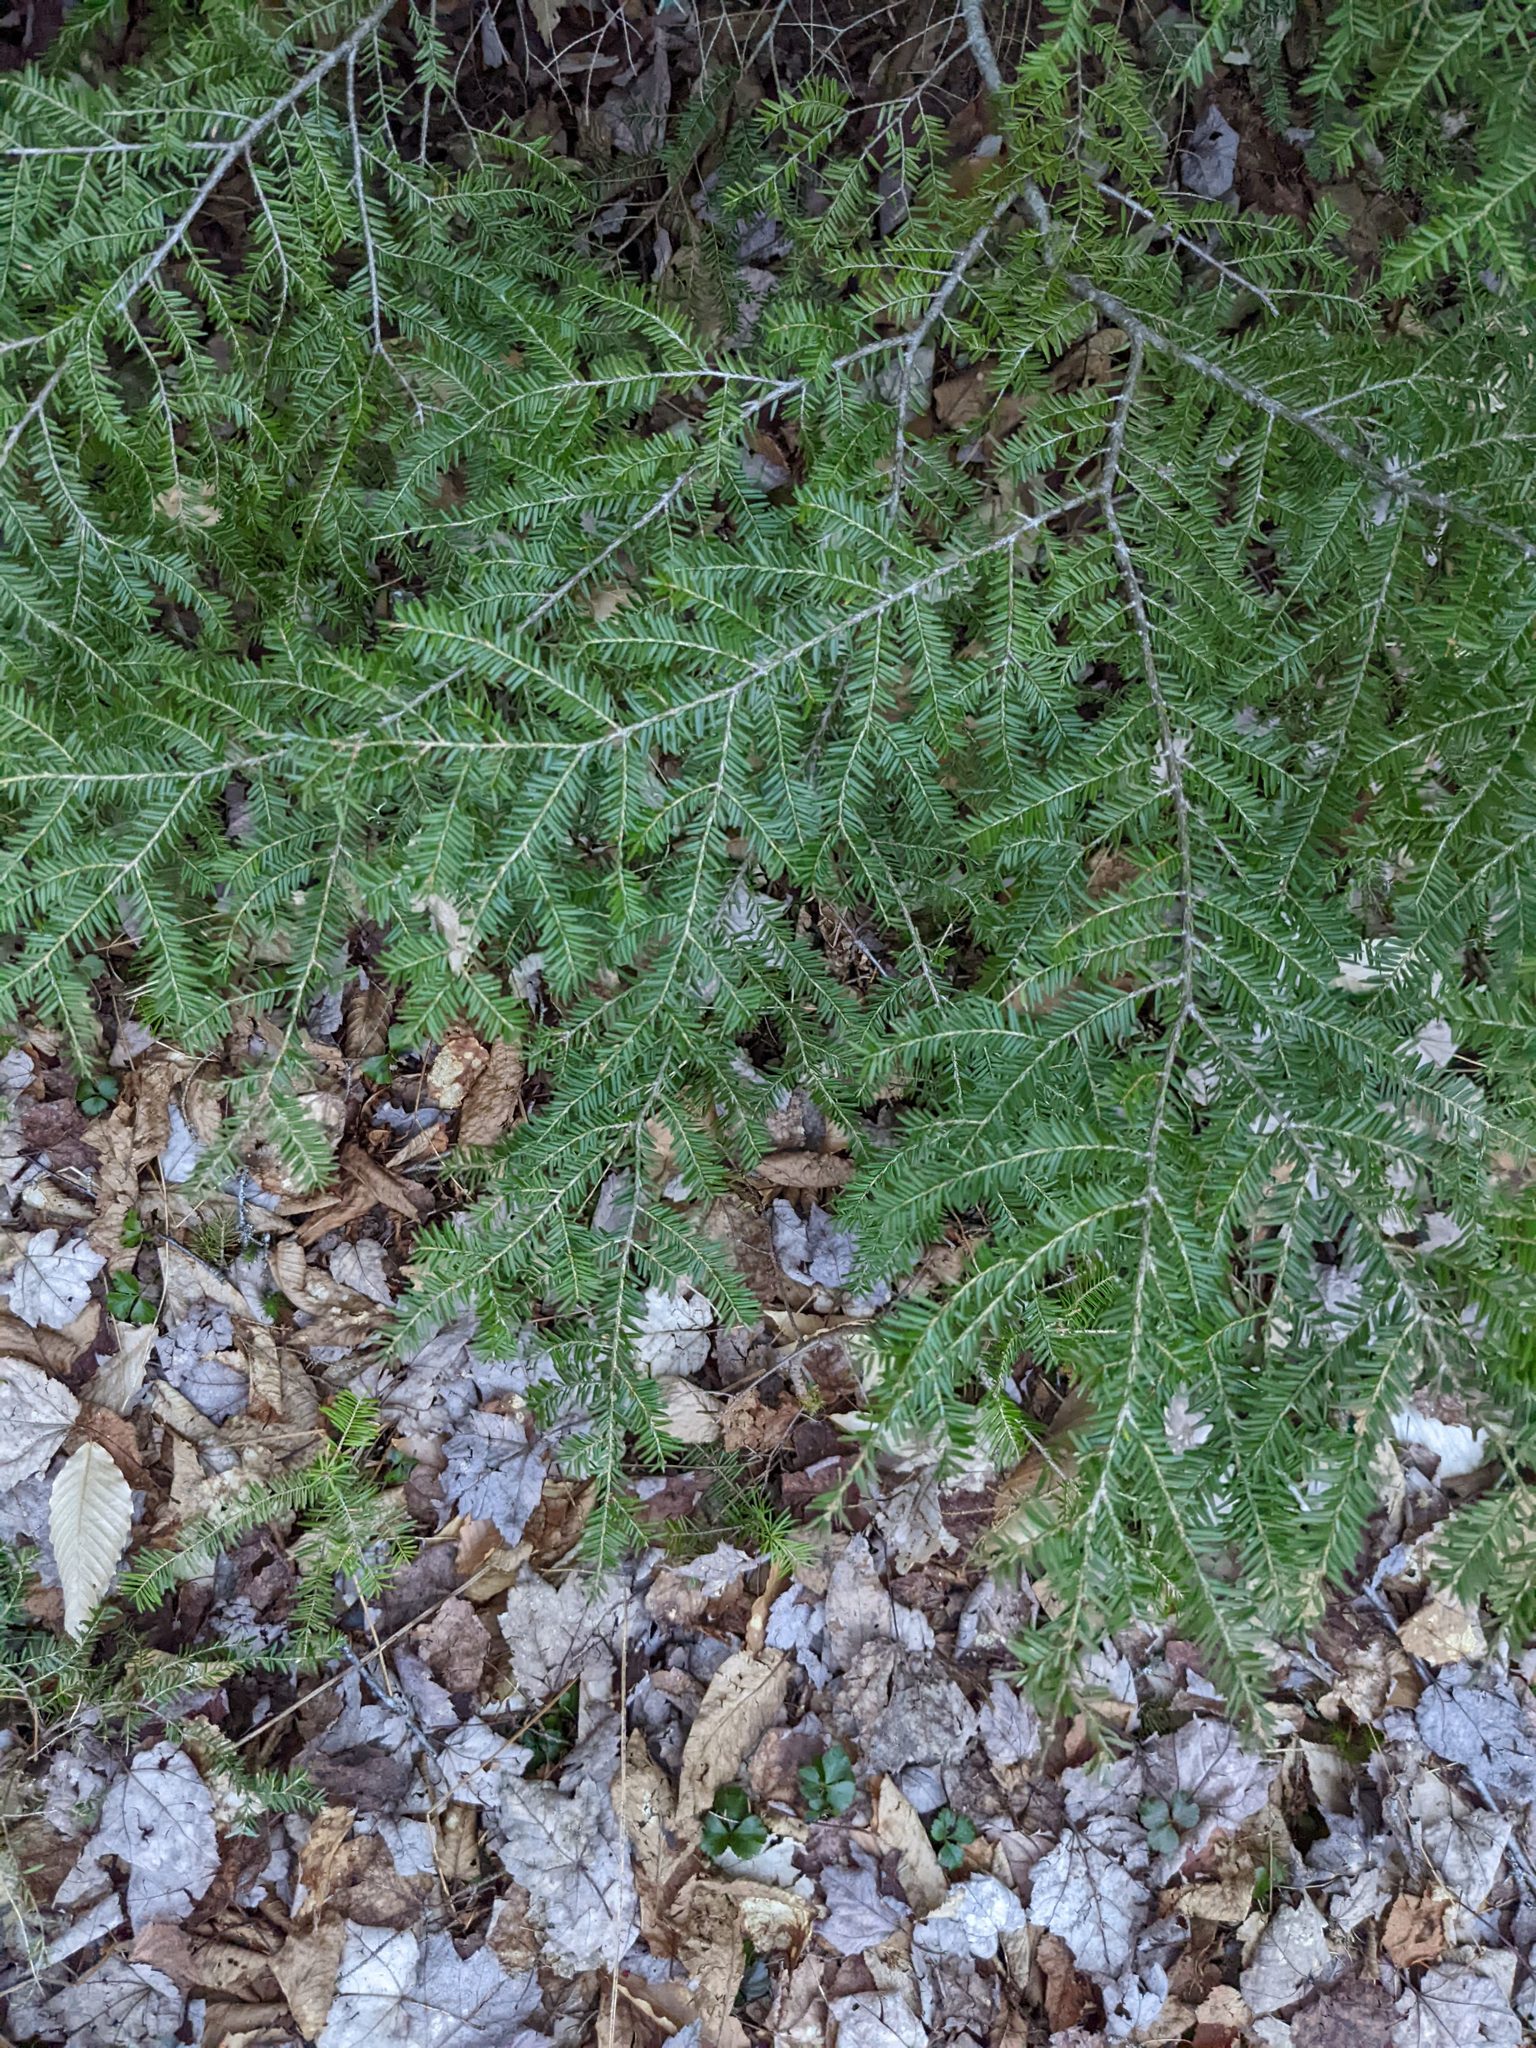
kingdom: Plantae
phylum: Tracheophyta
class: Pinopsida
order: Pinales
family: Pinaceae
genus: Tsuga
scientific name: Tsuga canadensis
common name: Eastern hemlock
